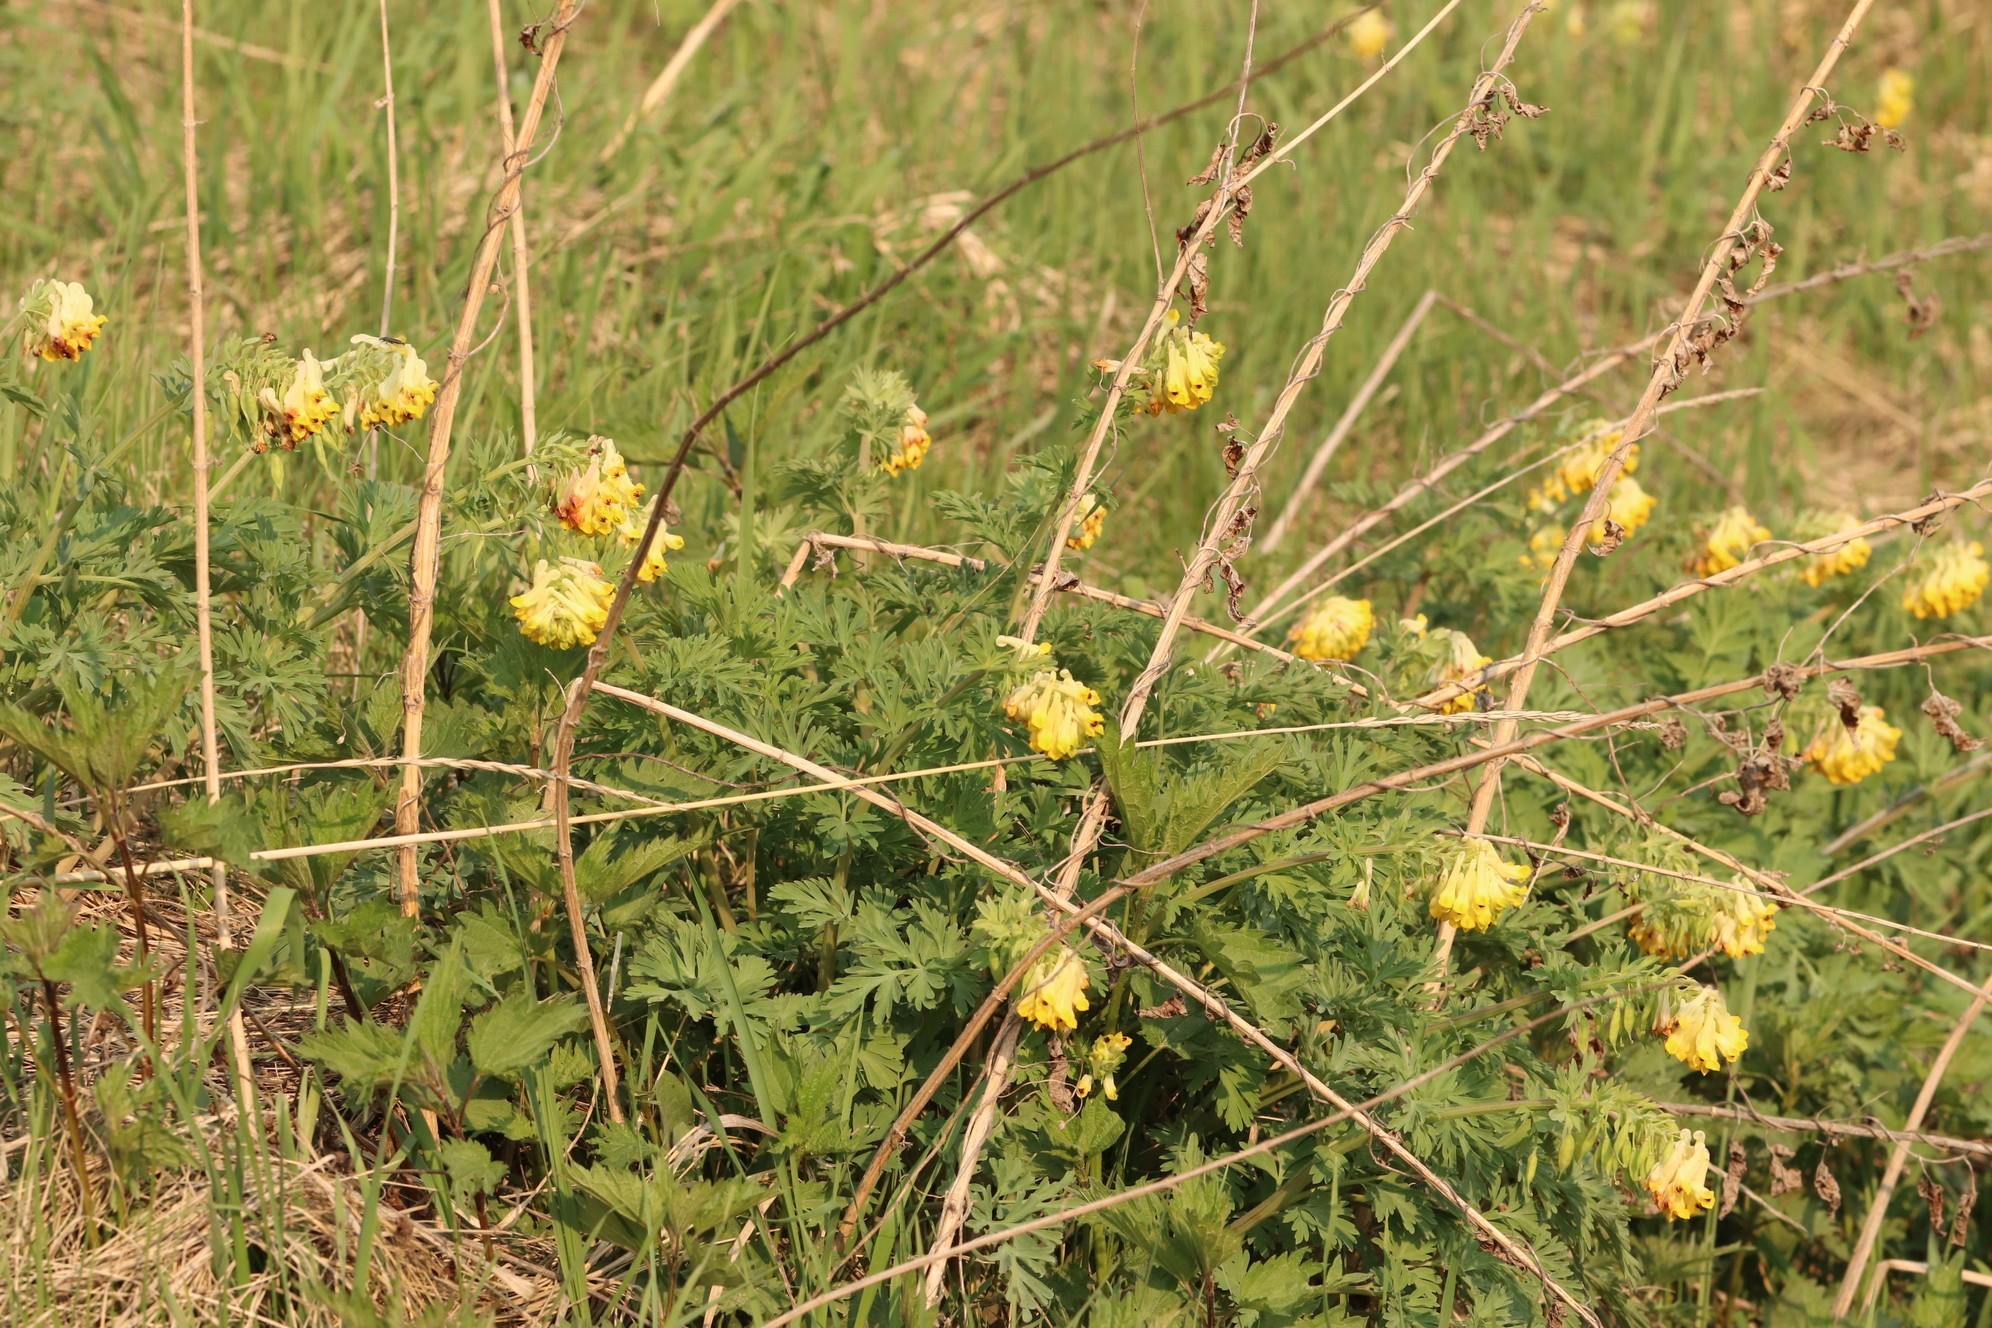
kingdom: Plantae
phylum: Tracheophyta
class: Magnoliopsida
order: Ranunculales
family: Papaveraceae
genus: Corydalis
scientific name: Corydalis nobilis
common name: Siberian corydalis
